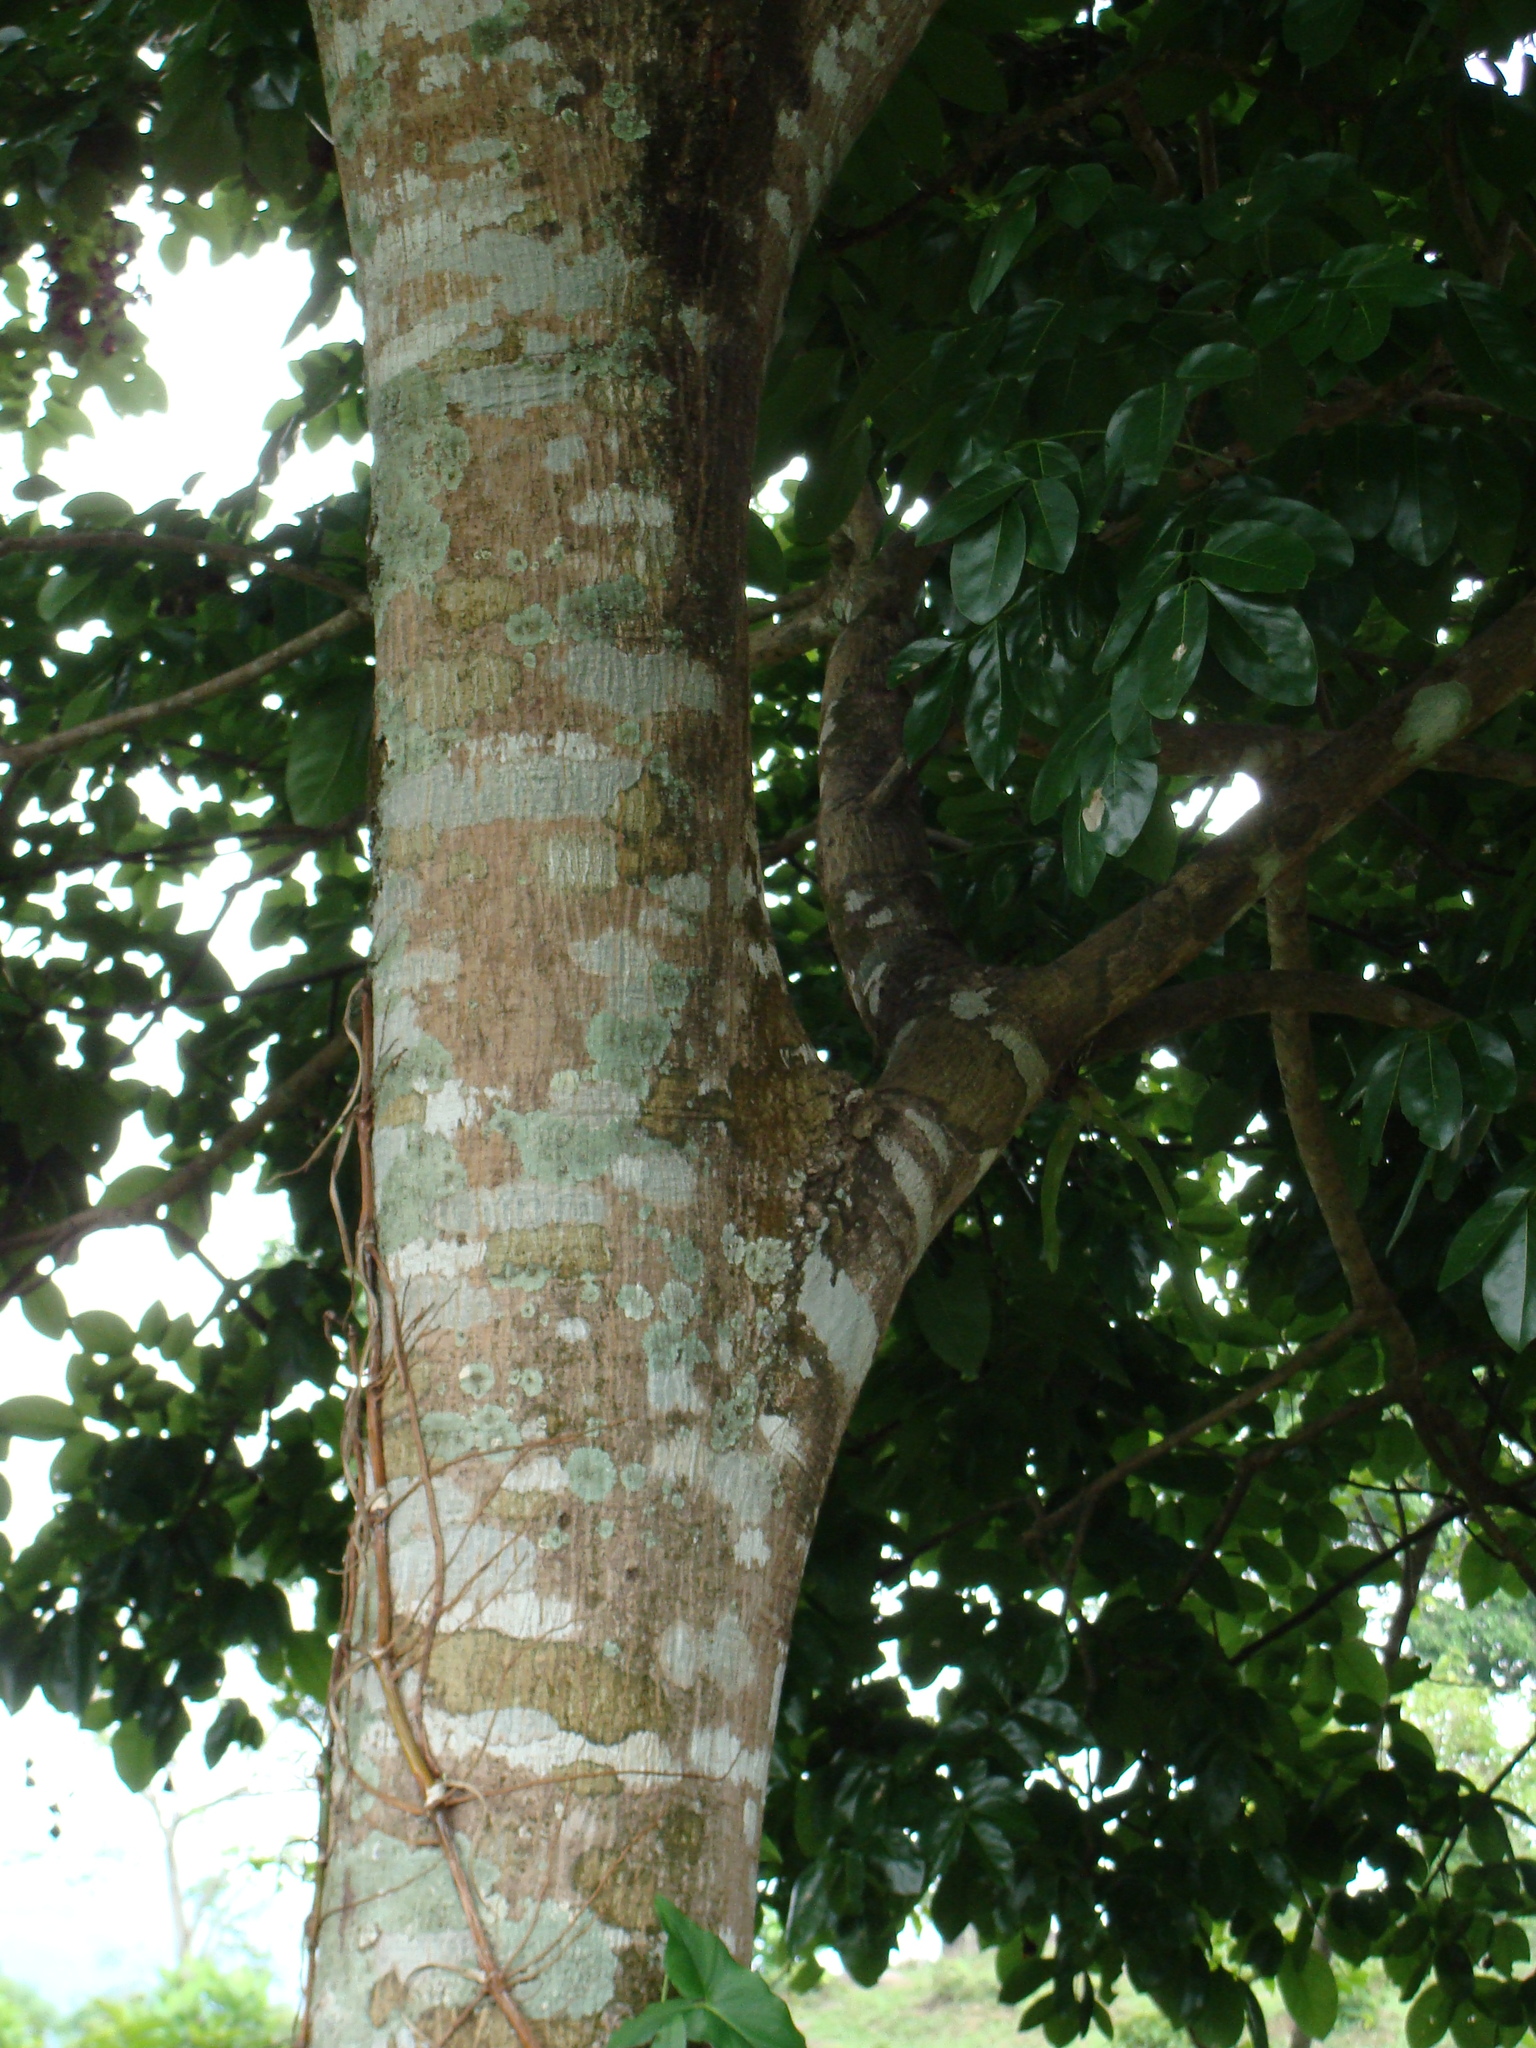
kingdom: Plantae
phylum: Tracheophyta
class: Magnoliopsida
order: Fabales
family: Fabaceae
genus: Ormosia
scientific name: Ormosia macrocalyx
